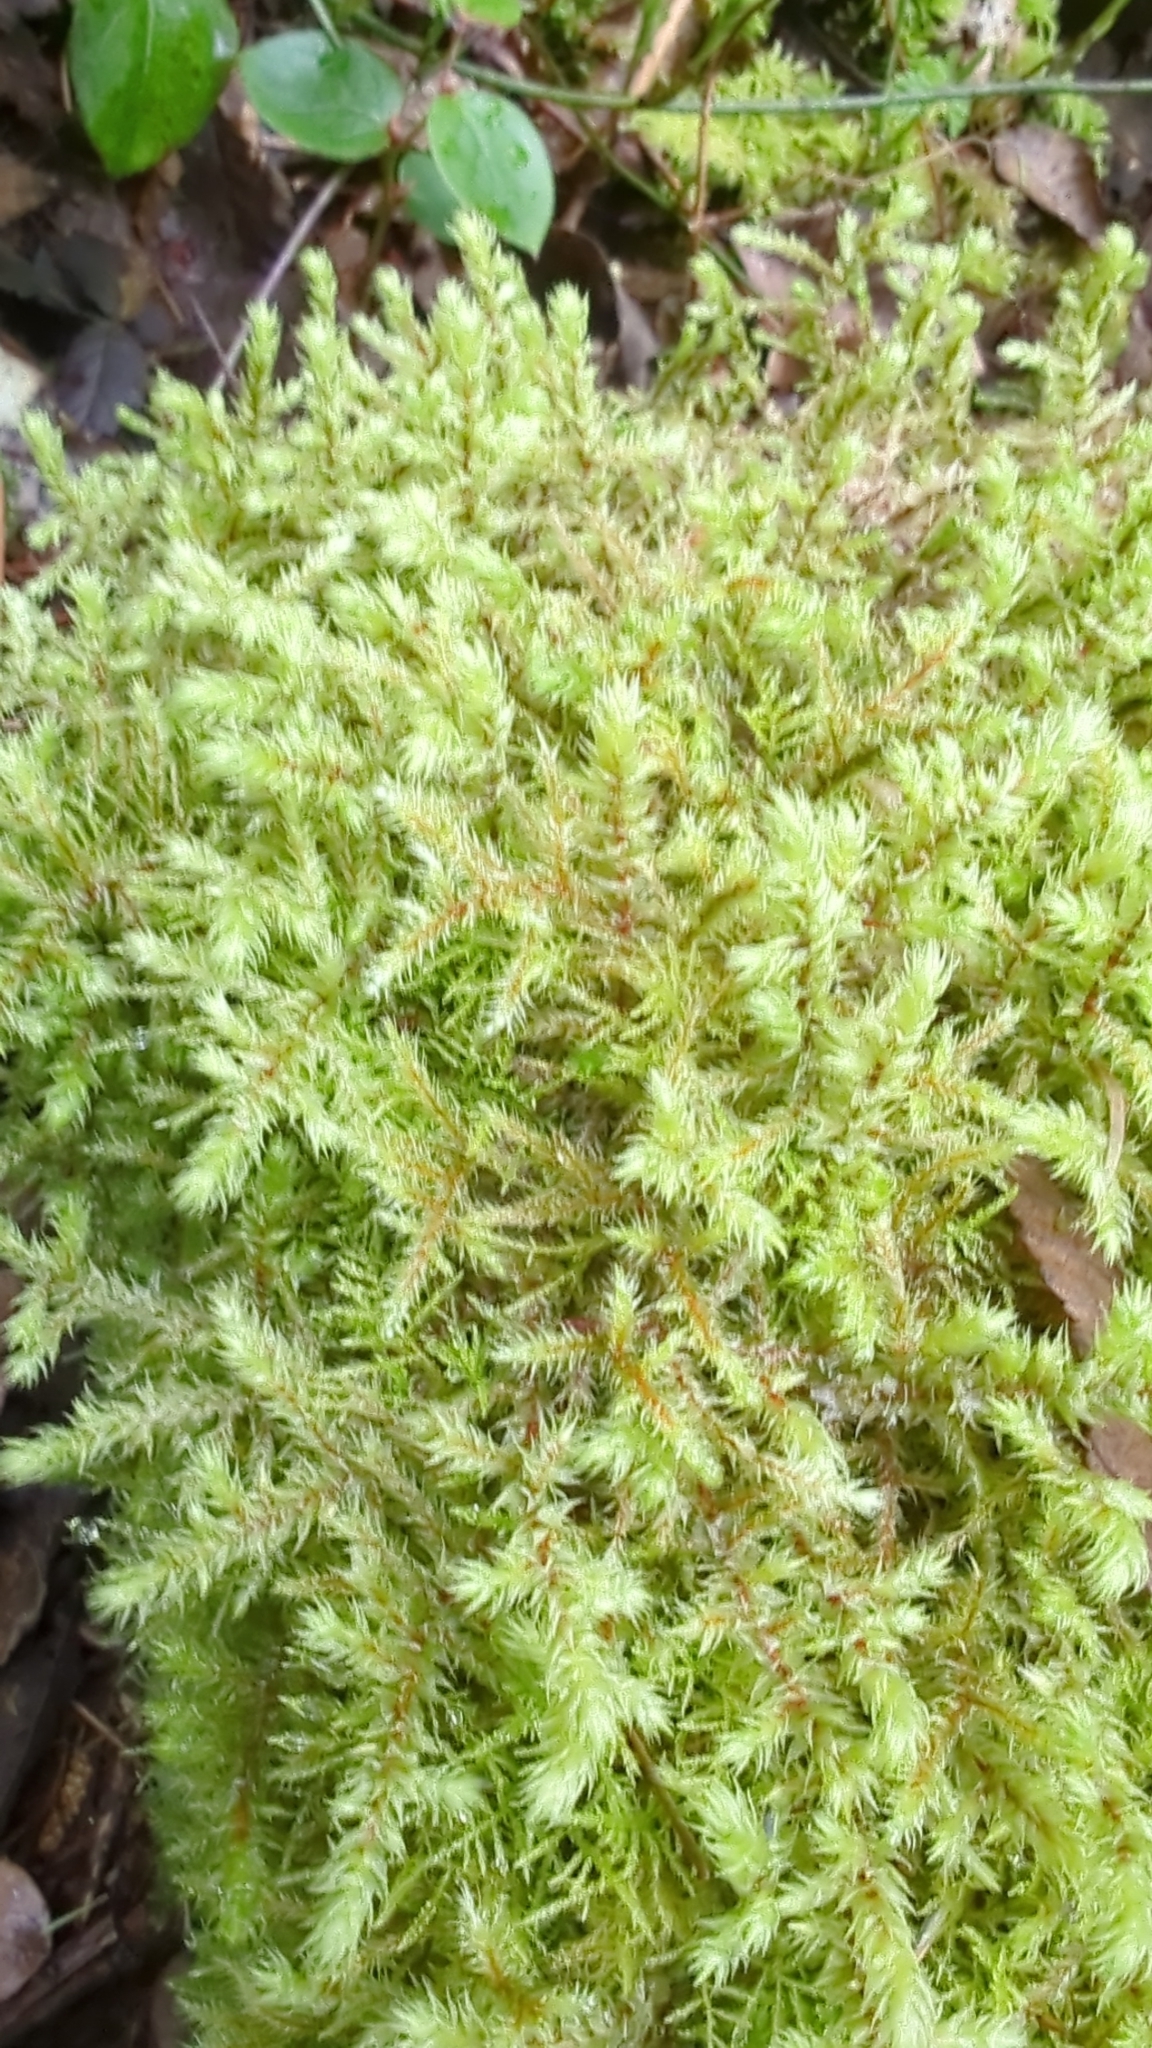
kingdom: Plantae
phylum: Bryophyta
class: Bryopsida
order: Hypnales
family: Hylocomiaceae
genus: Hylocomiadelphus
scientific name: Hylocomiadelphus triquetrus
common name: Rough goose neck moss
